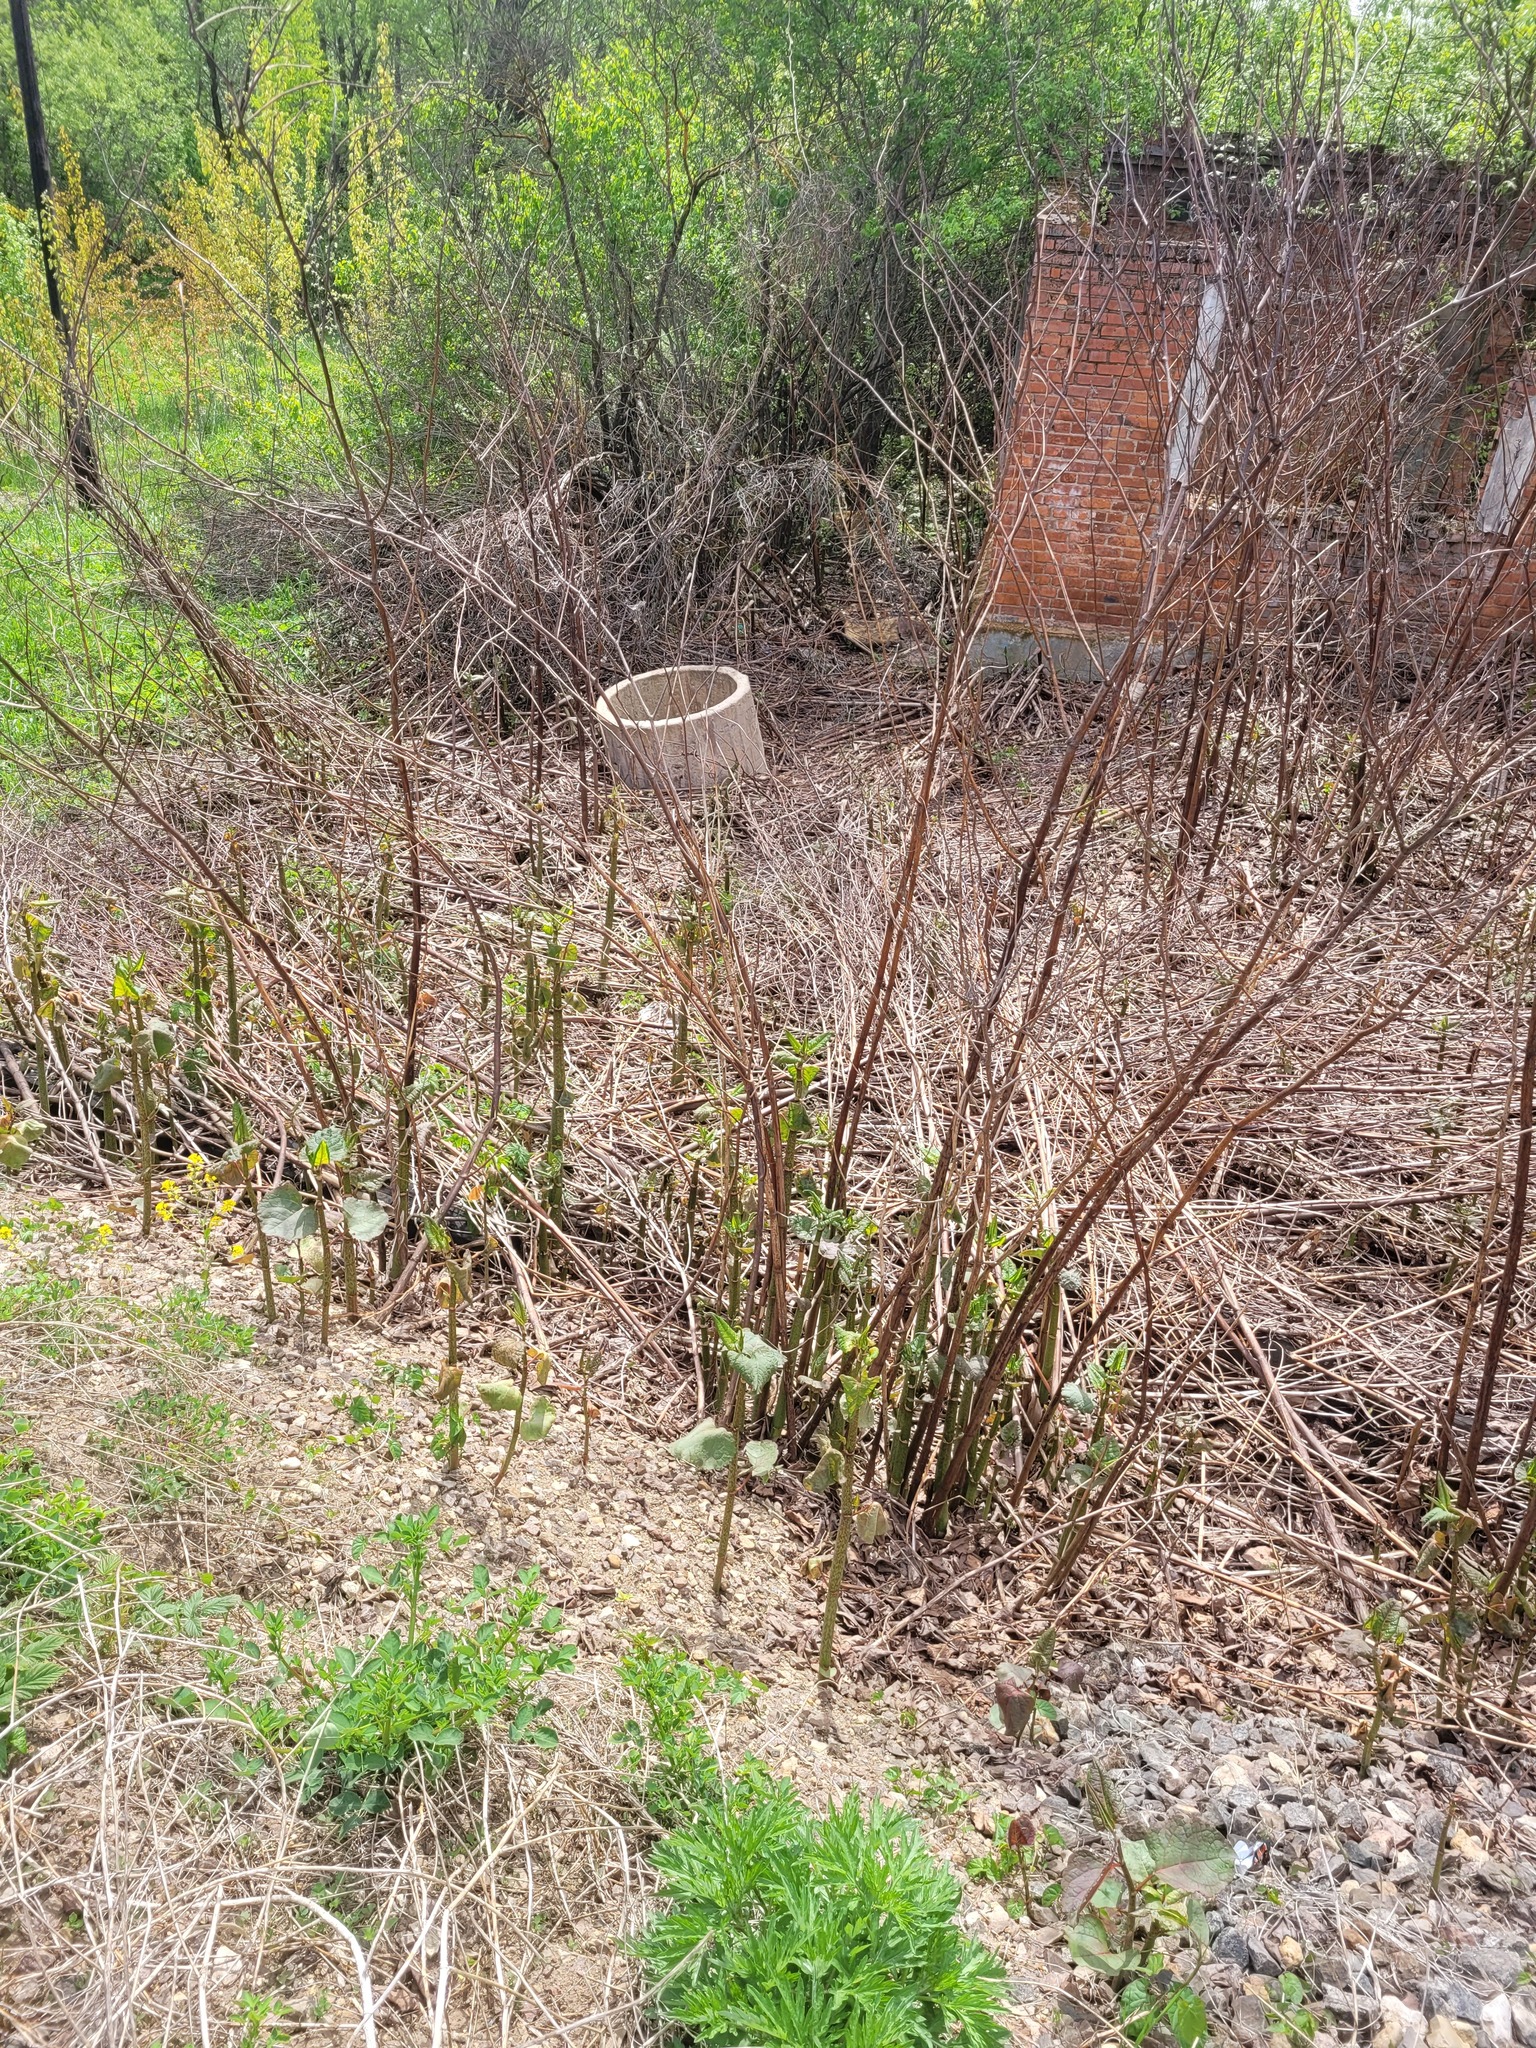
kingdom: Plantae
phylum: Tracheophyta
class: Magnoliopsida
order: Caryophyllales
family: Polygonaceae
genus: Reynoutria
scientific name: Reynoutria bohemica
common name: Bohemian knotweed
